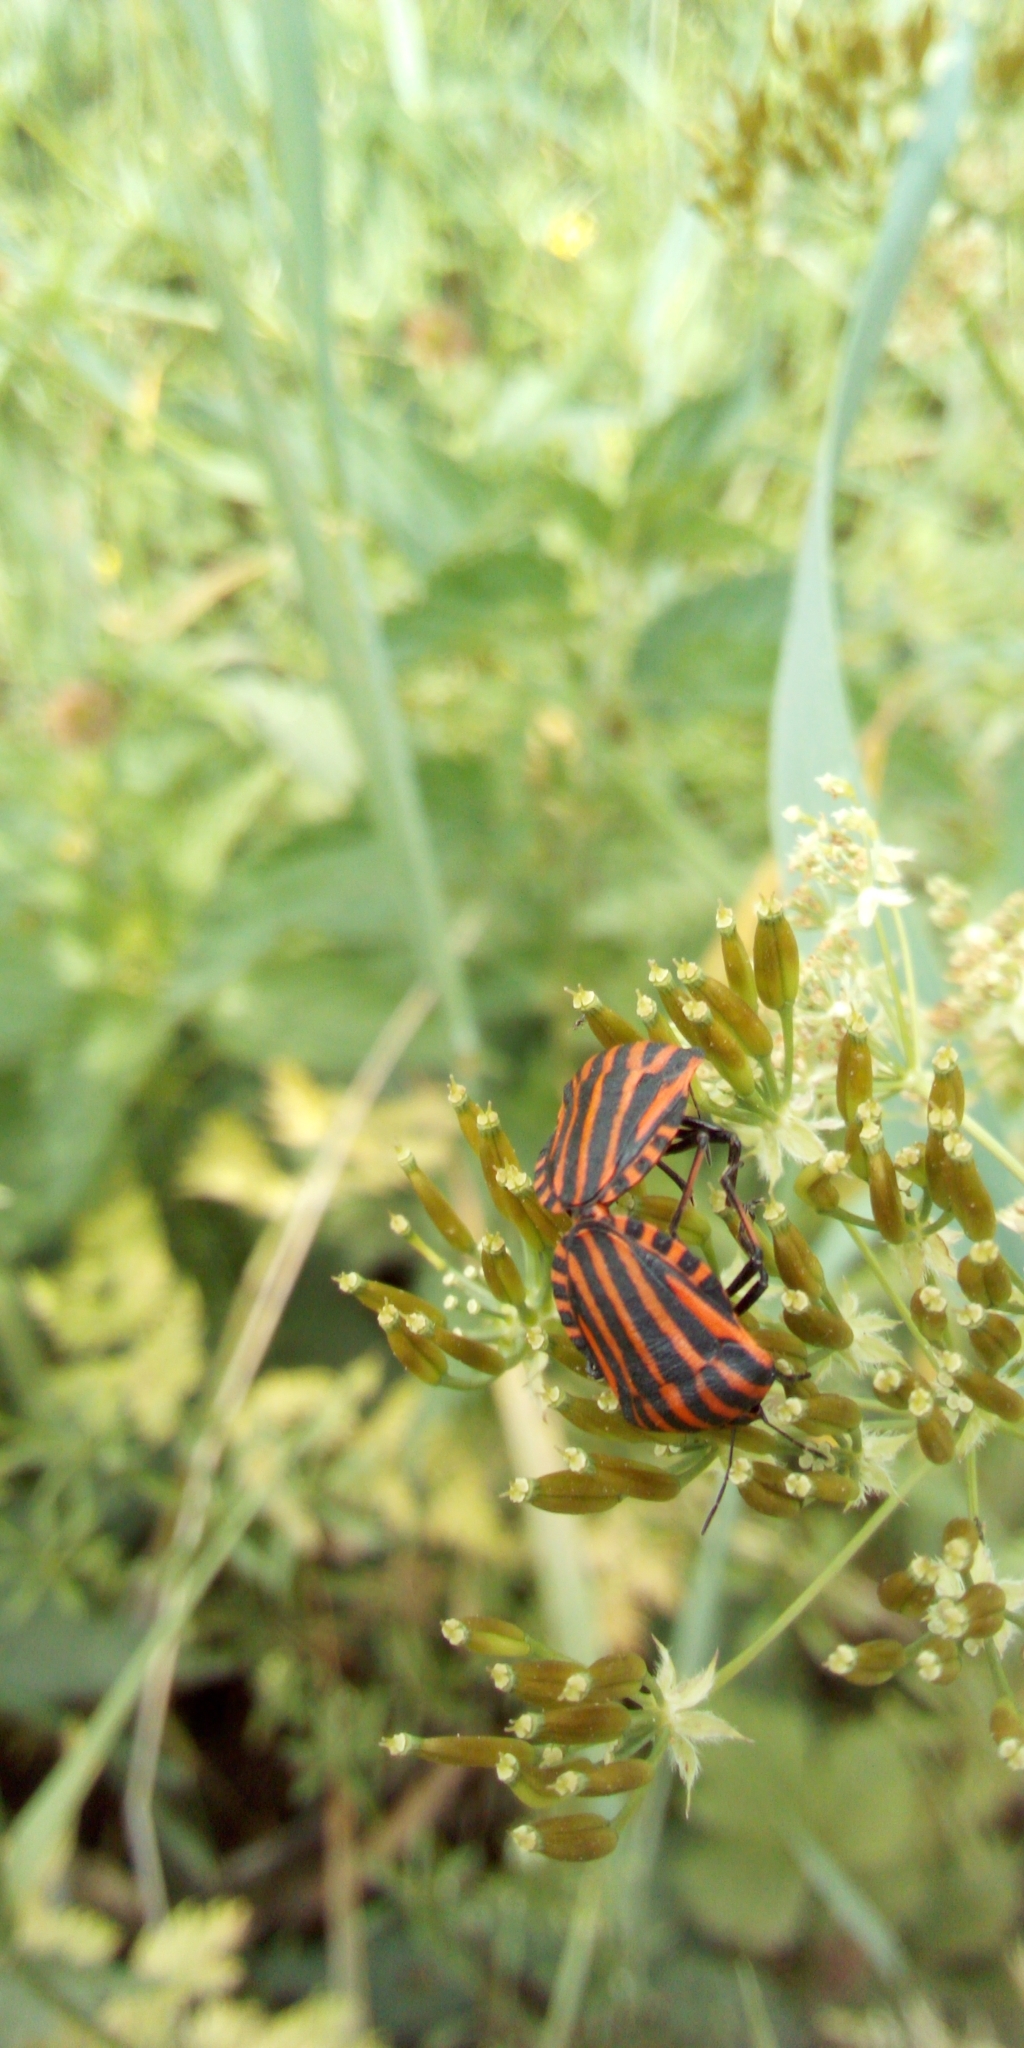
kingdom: Animalia
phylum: Arthropoda
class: Insecta
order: Hemiptera
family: Pentatomidae
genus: Graphosoma
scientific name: Graphosoma italicum
